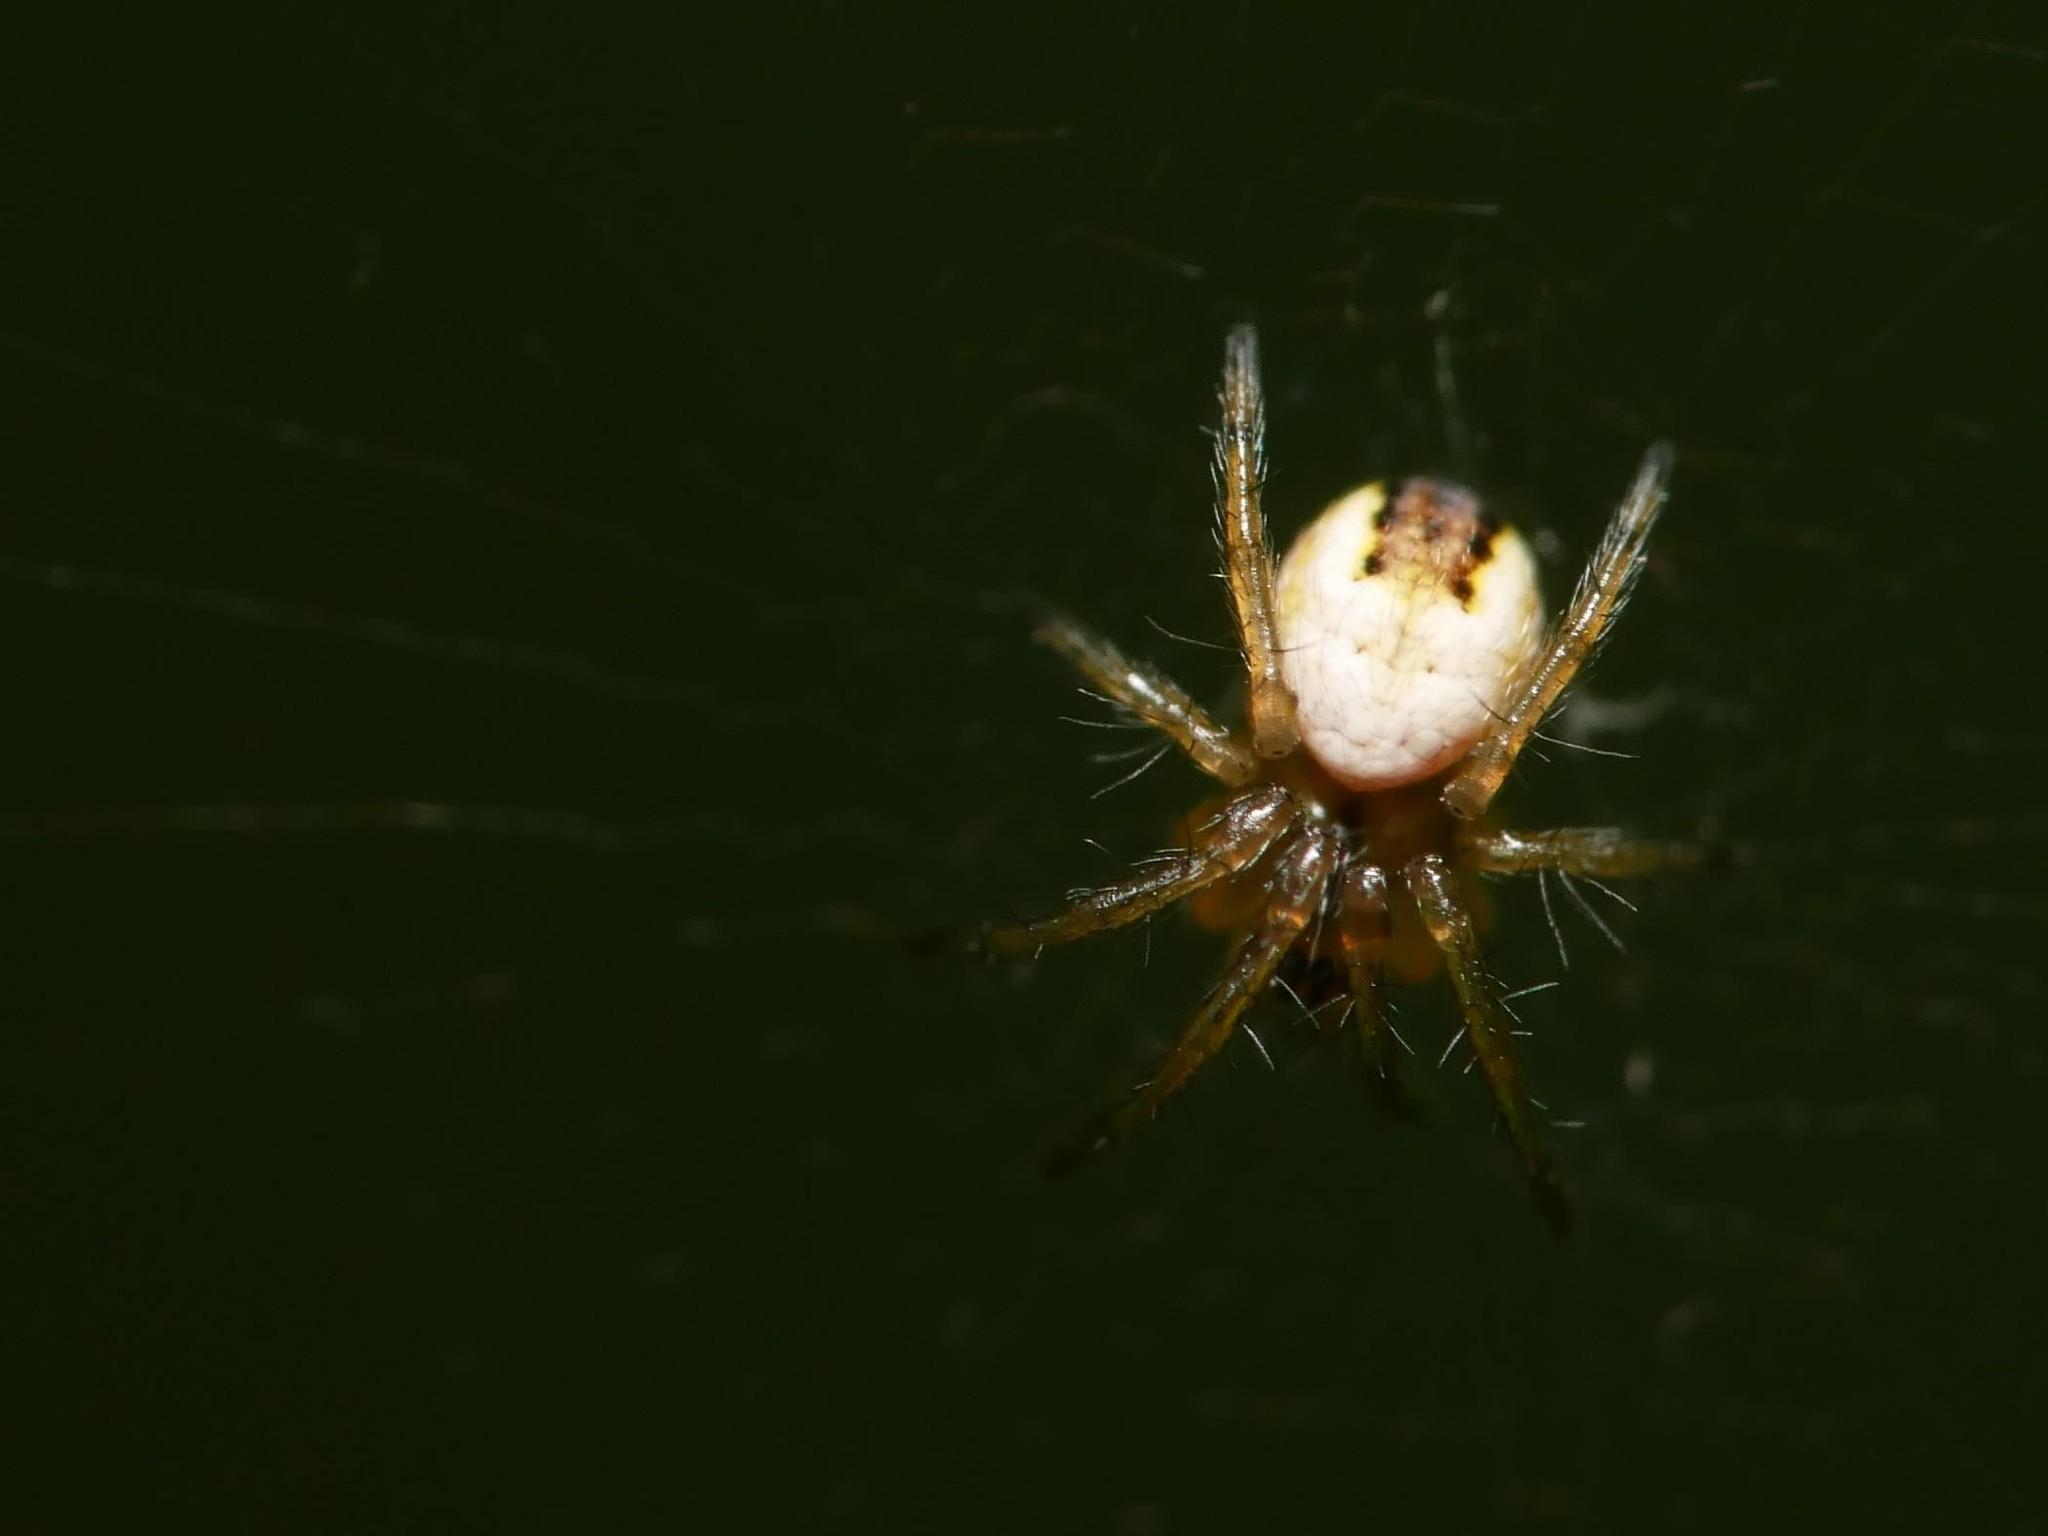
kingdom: Animalia
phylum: Arthropoda
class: Arachnida
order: Araneae
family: Araneidae
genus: Mangora
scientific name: Mangora acalypha
